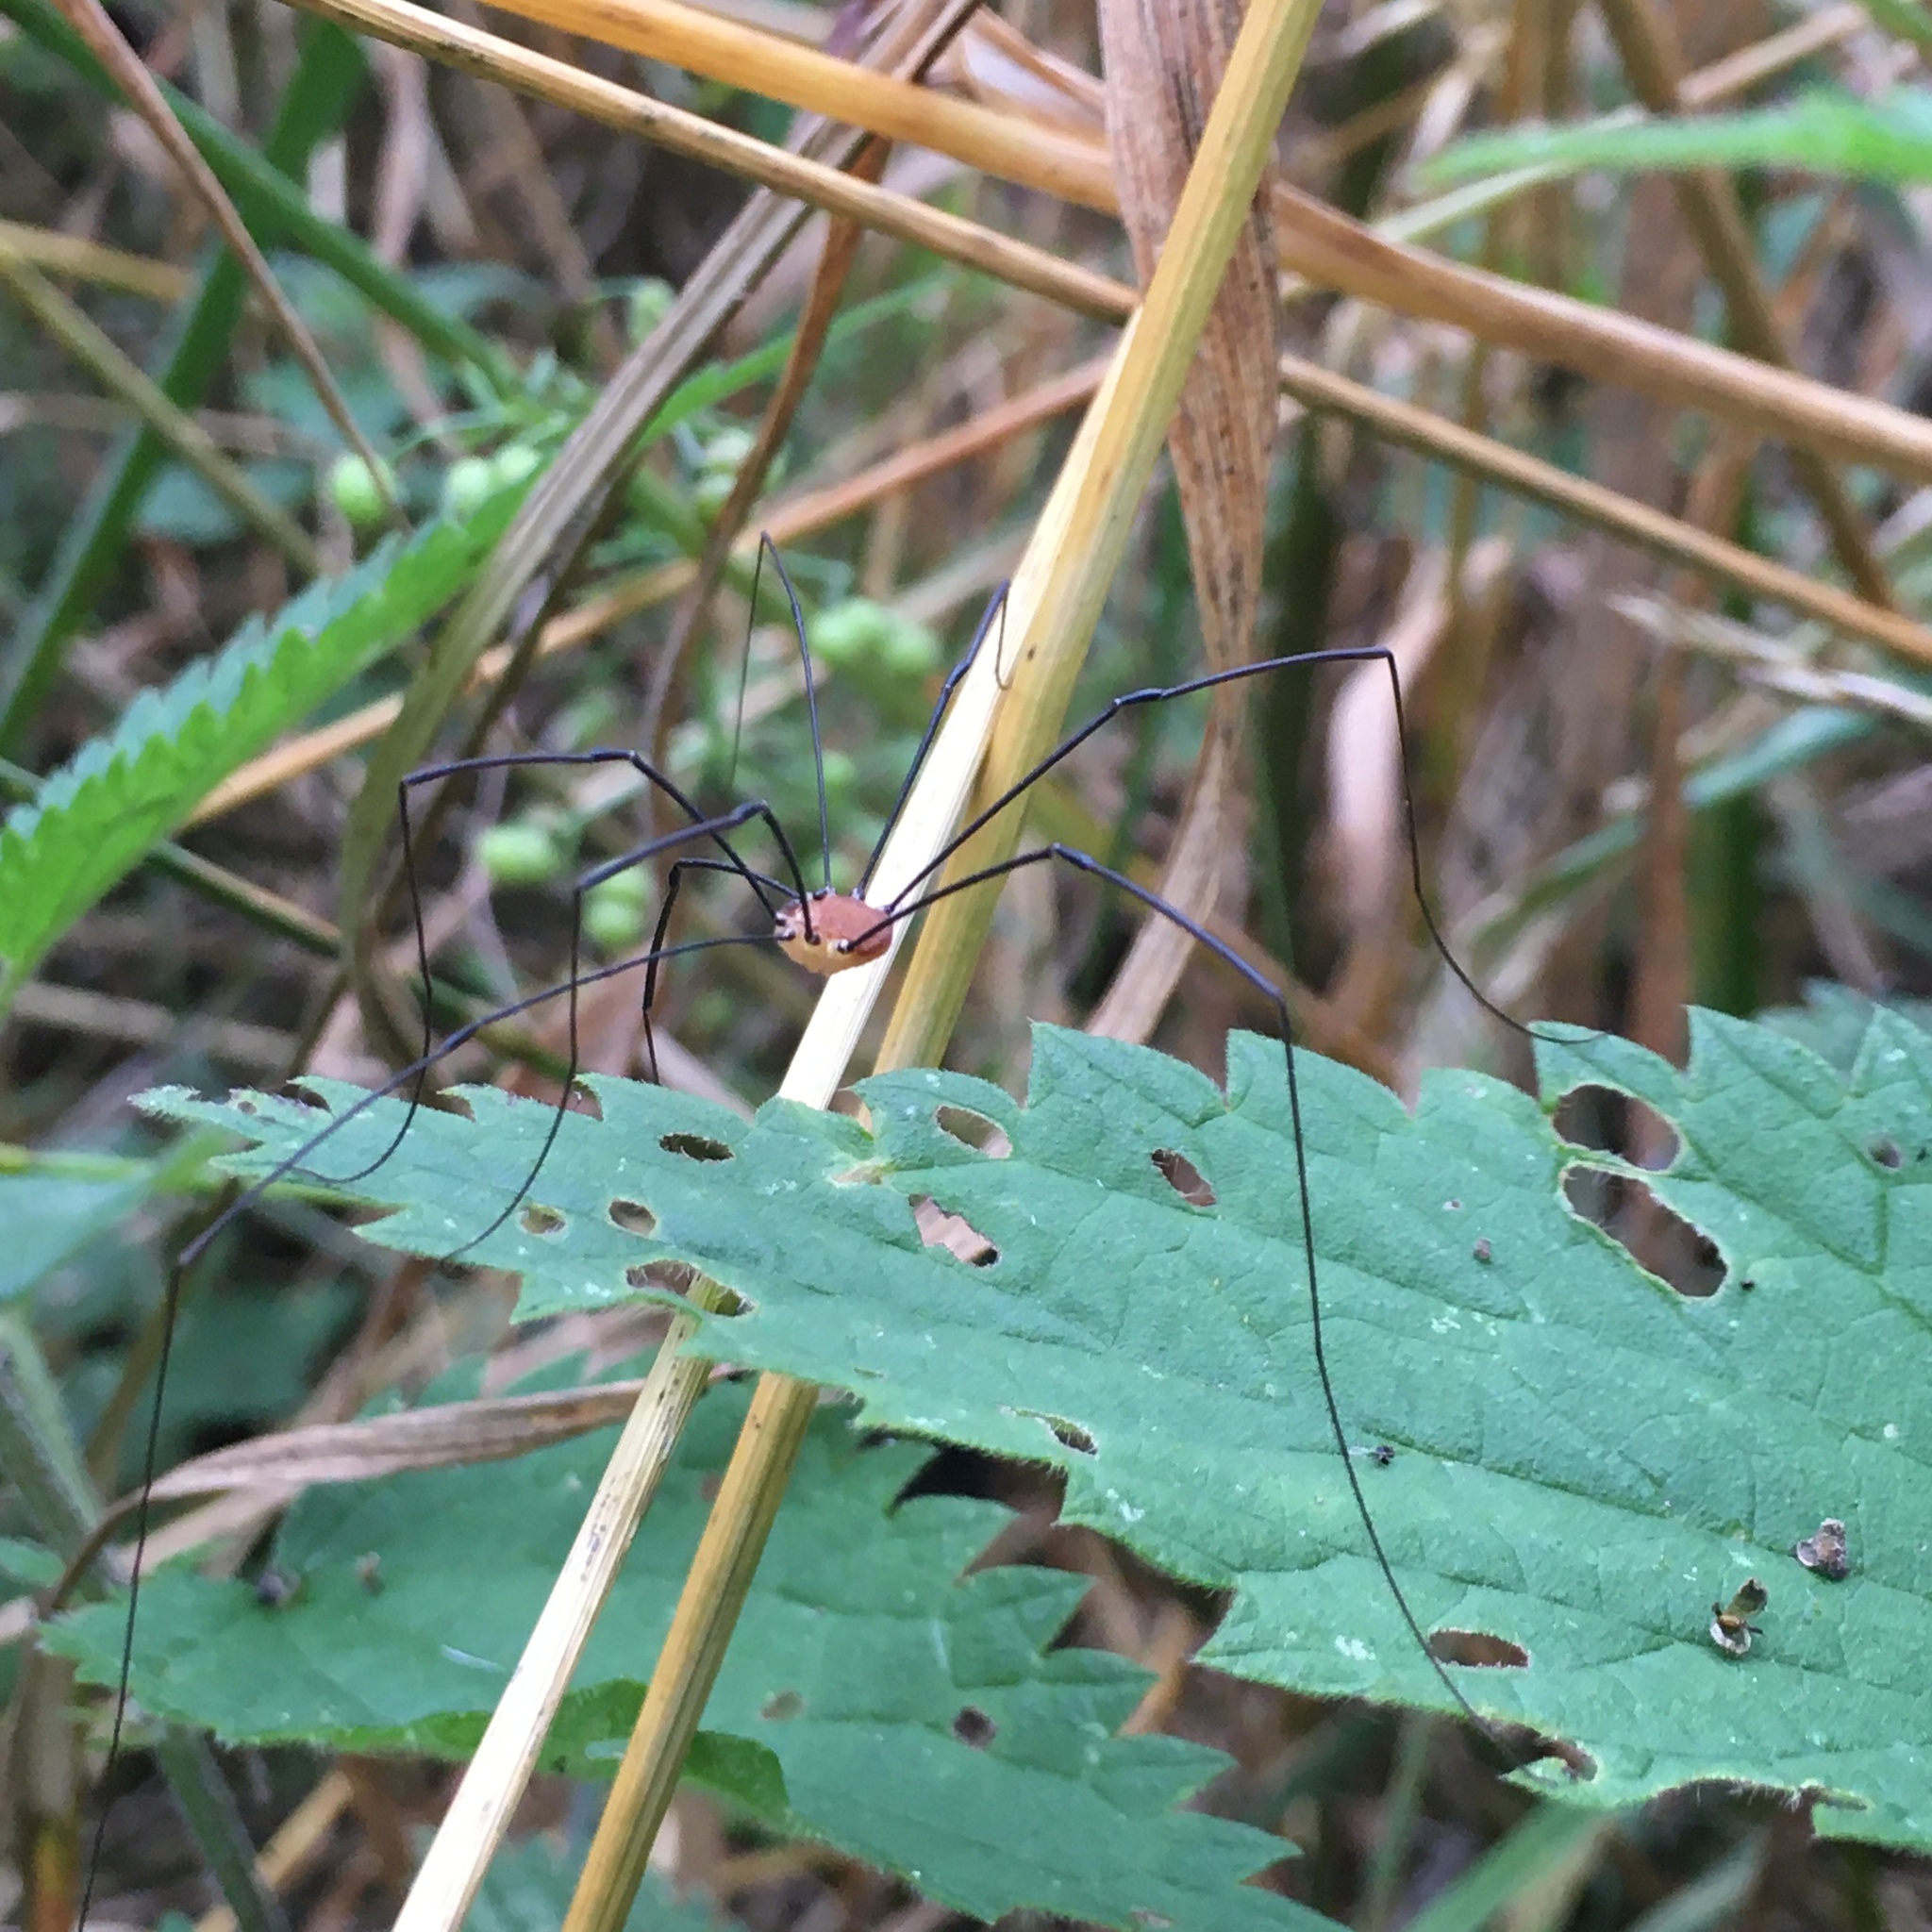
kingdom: Animalia
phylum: Arthropoda
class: Arachnida
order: Opiliones
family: Sclerosomatidae
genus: Leiobunum
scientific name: Leiobunum rotundum
